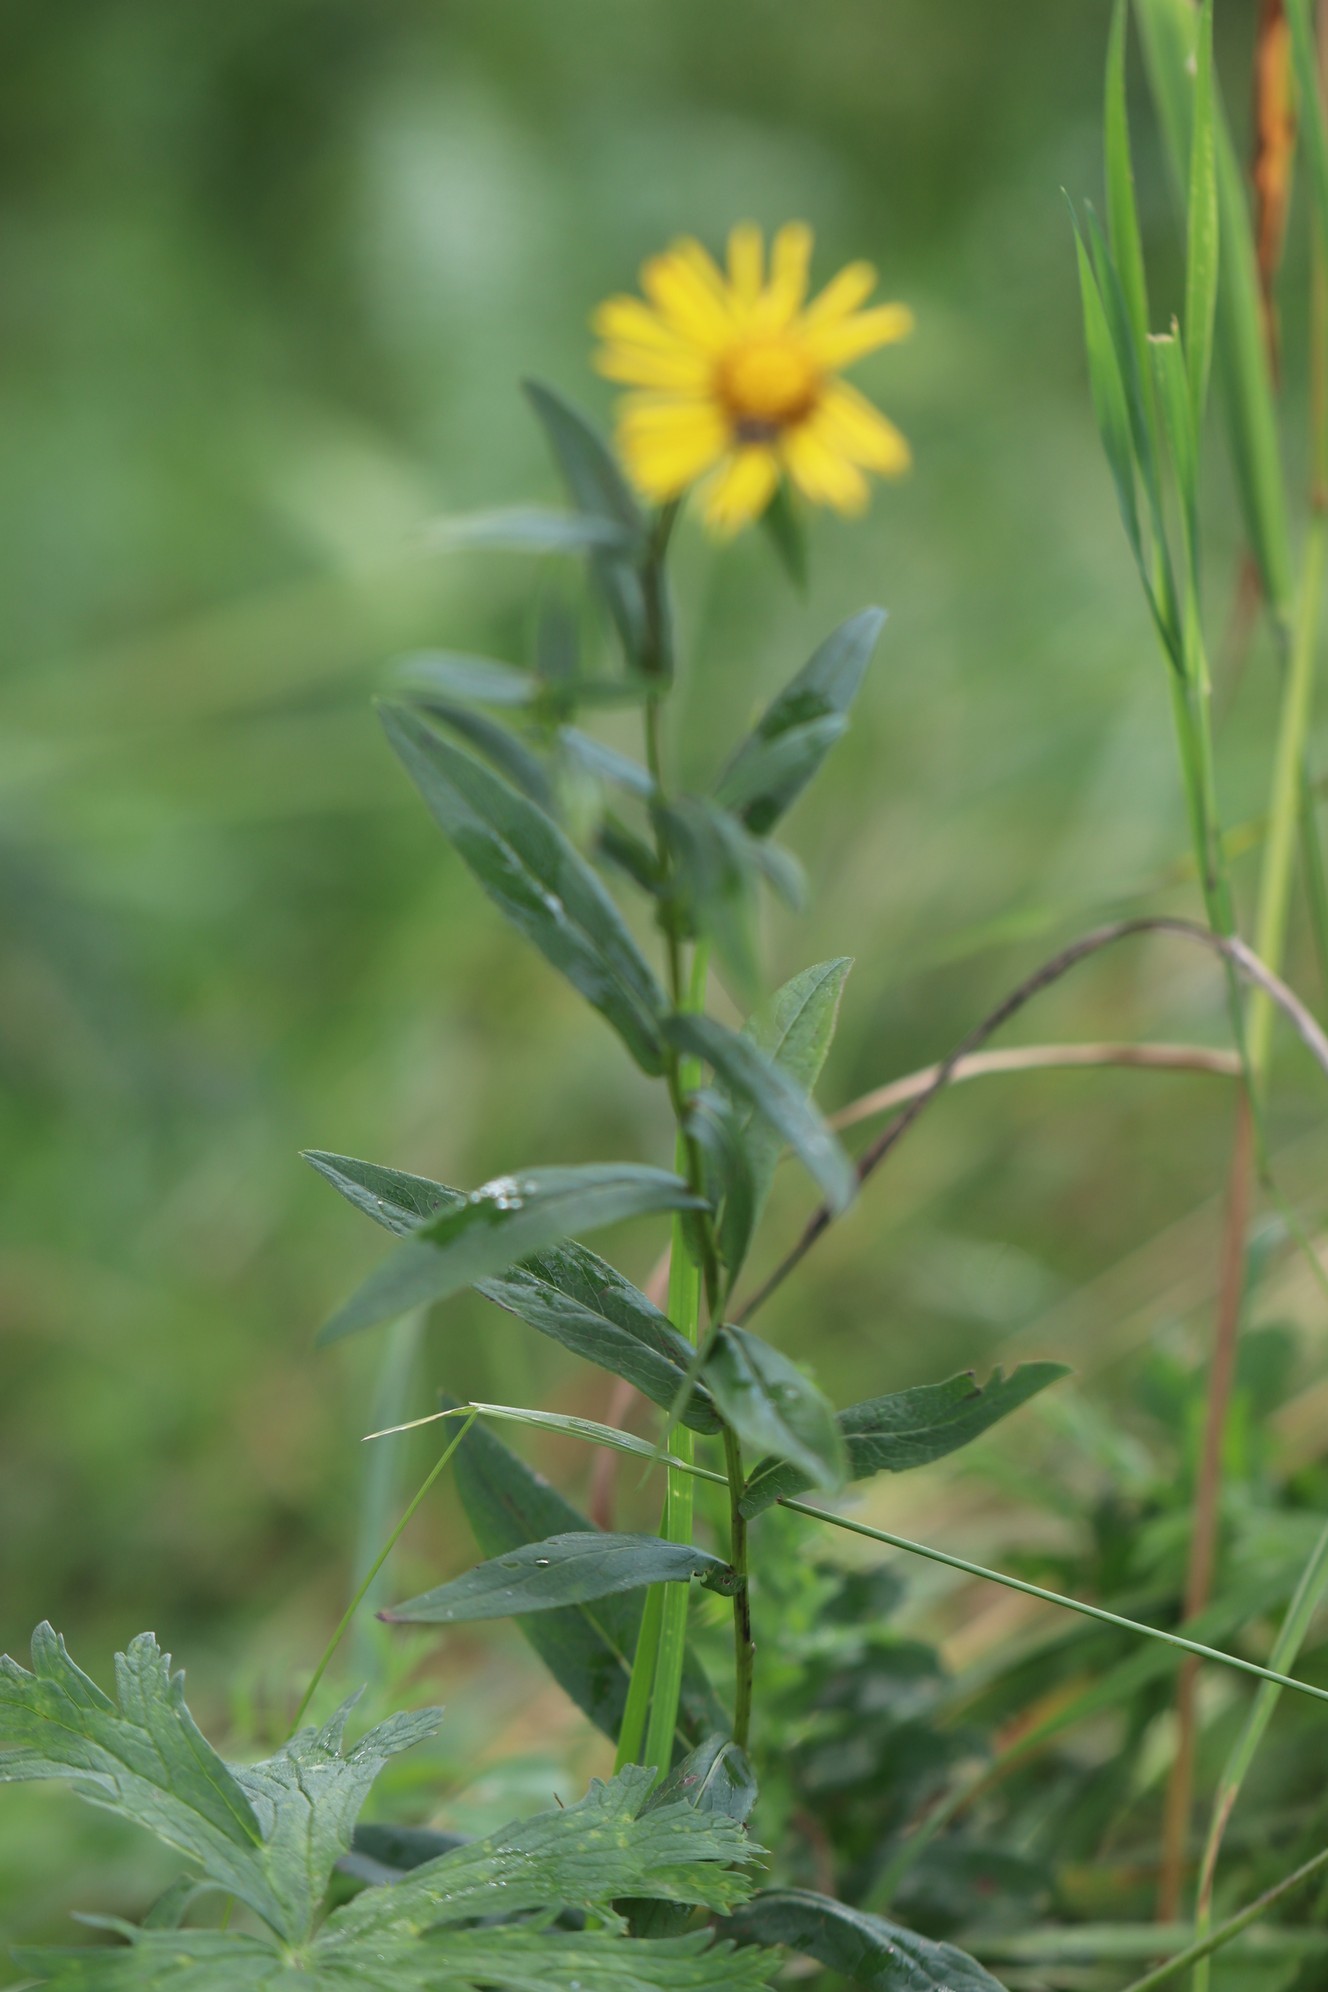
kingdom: Plantae
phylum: Tracheophyta
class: Magnoliopsida
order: Asterales
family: Asteraceae
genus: Pentanema
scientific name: Pentanema salicinum
